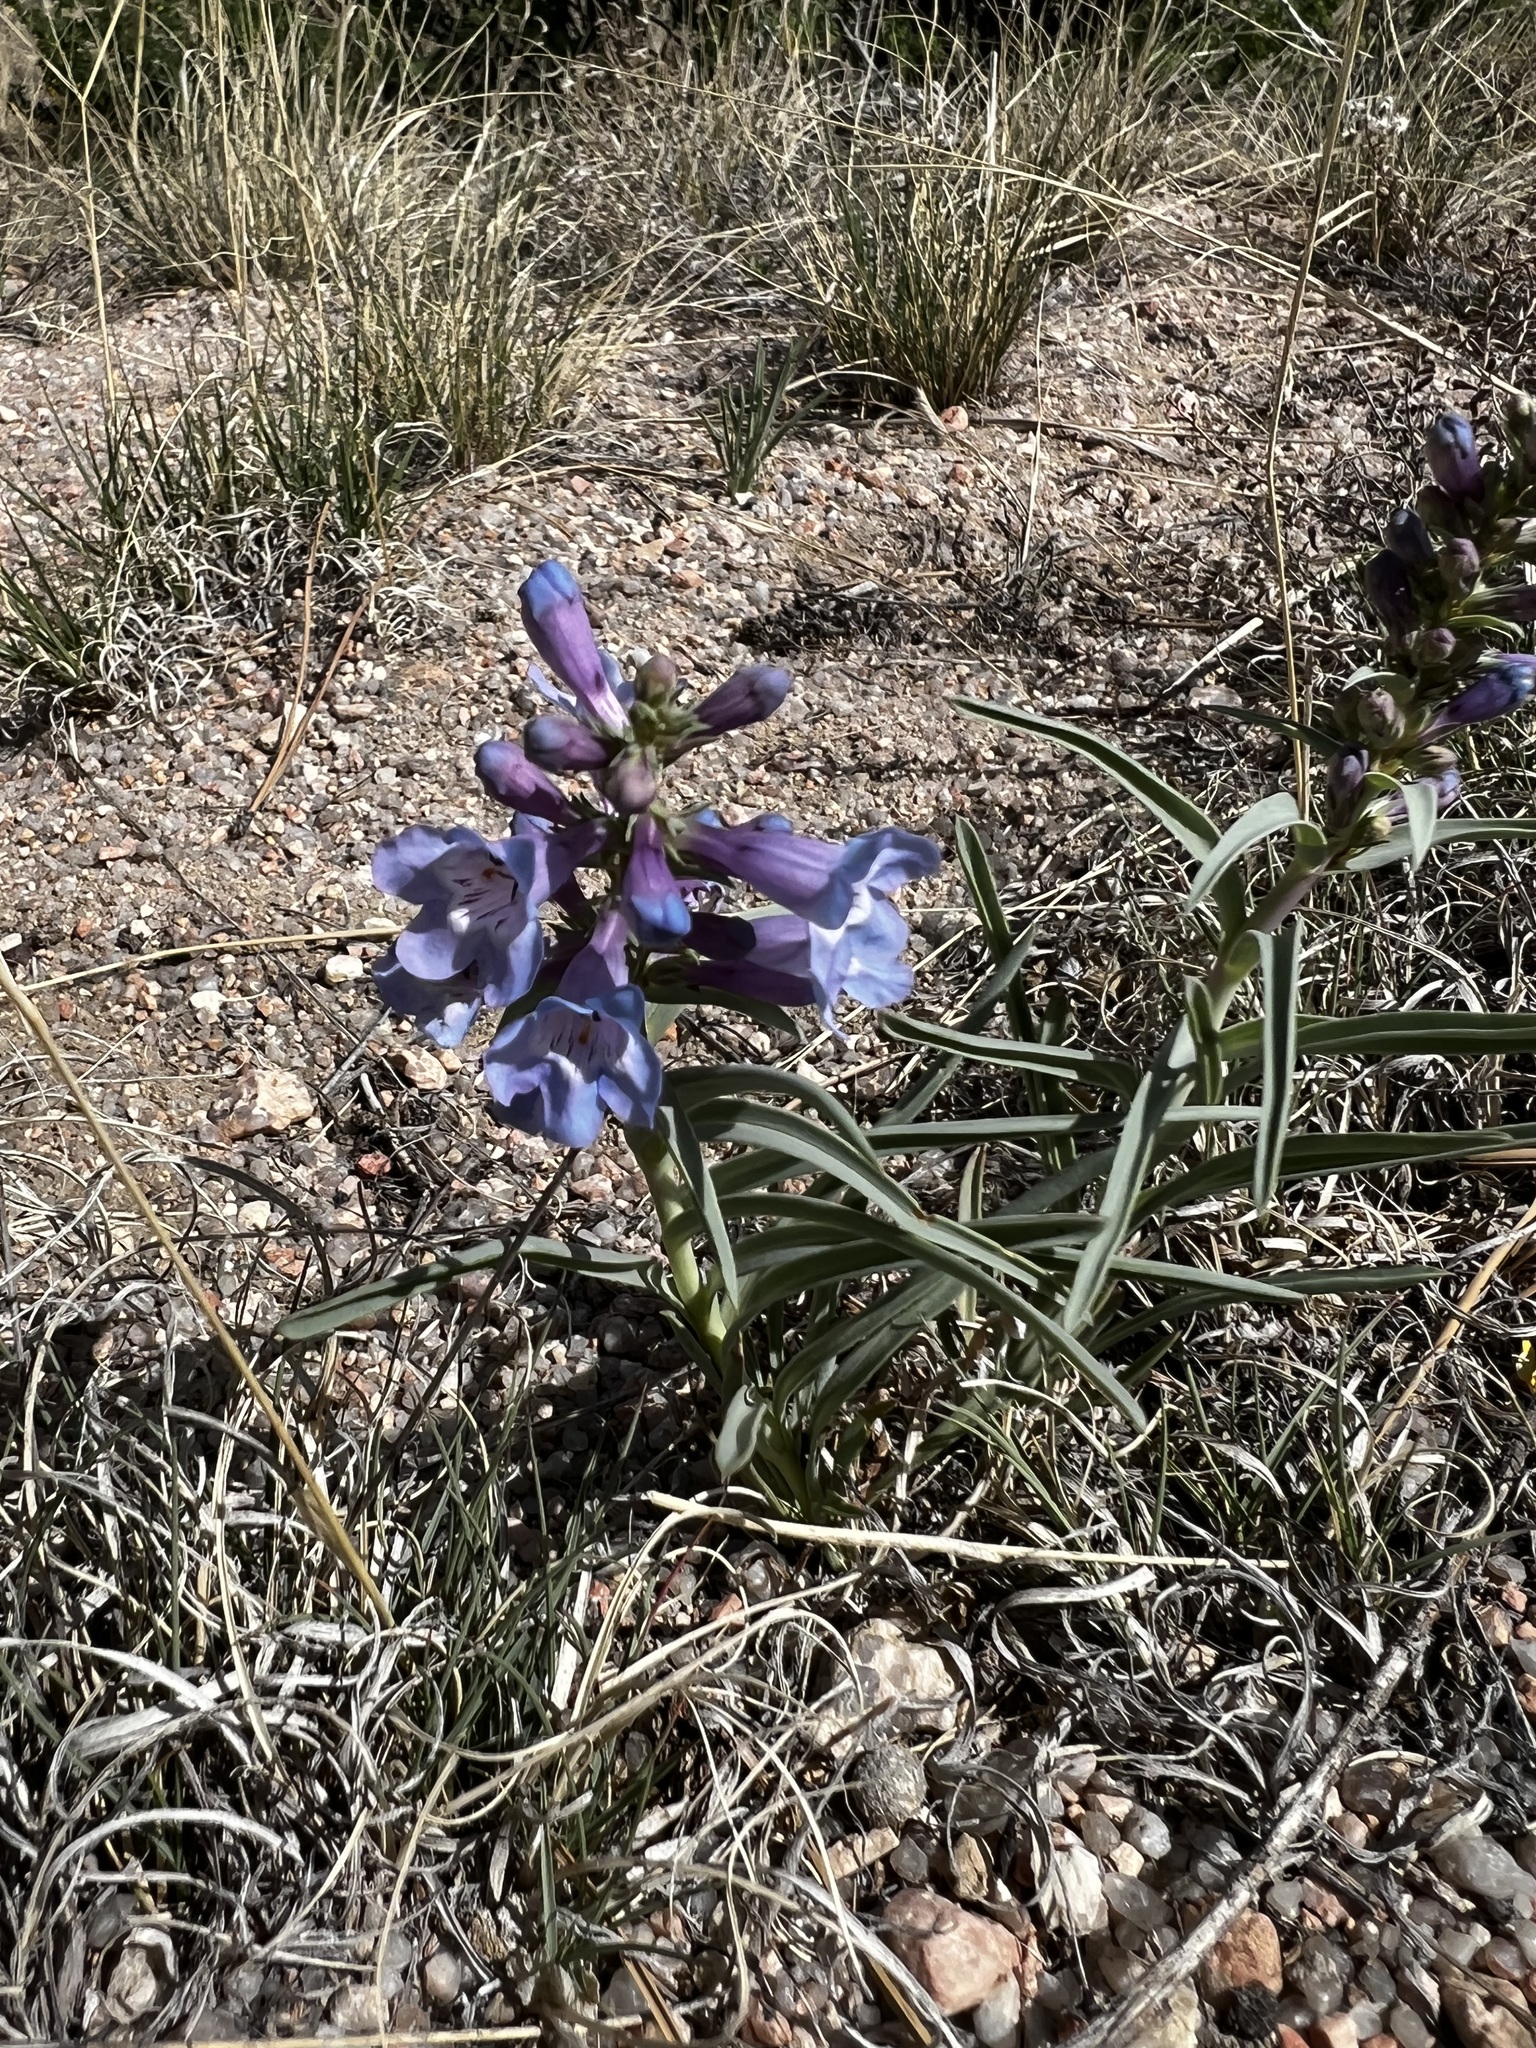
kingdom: Plantae
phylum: Tracheophyta
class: Magnoliopsida
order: Lamiales
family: Plantaginaceae
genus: Penstemon
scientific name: Penstemon angustifolius
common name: Narrow beardtongue
